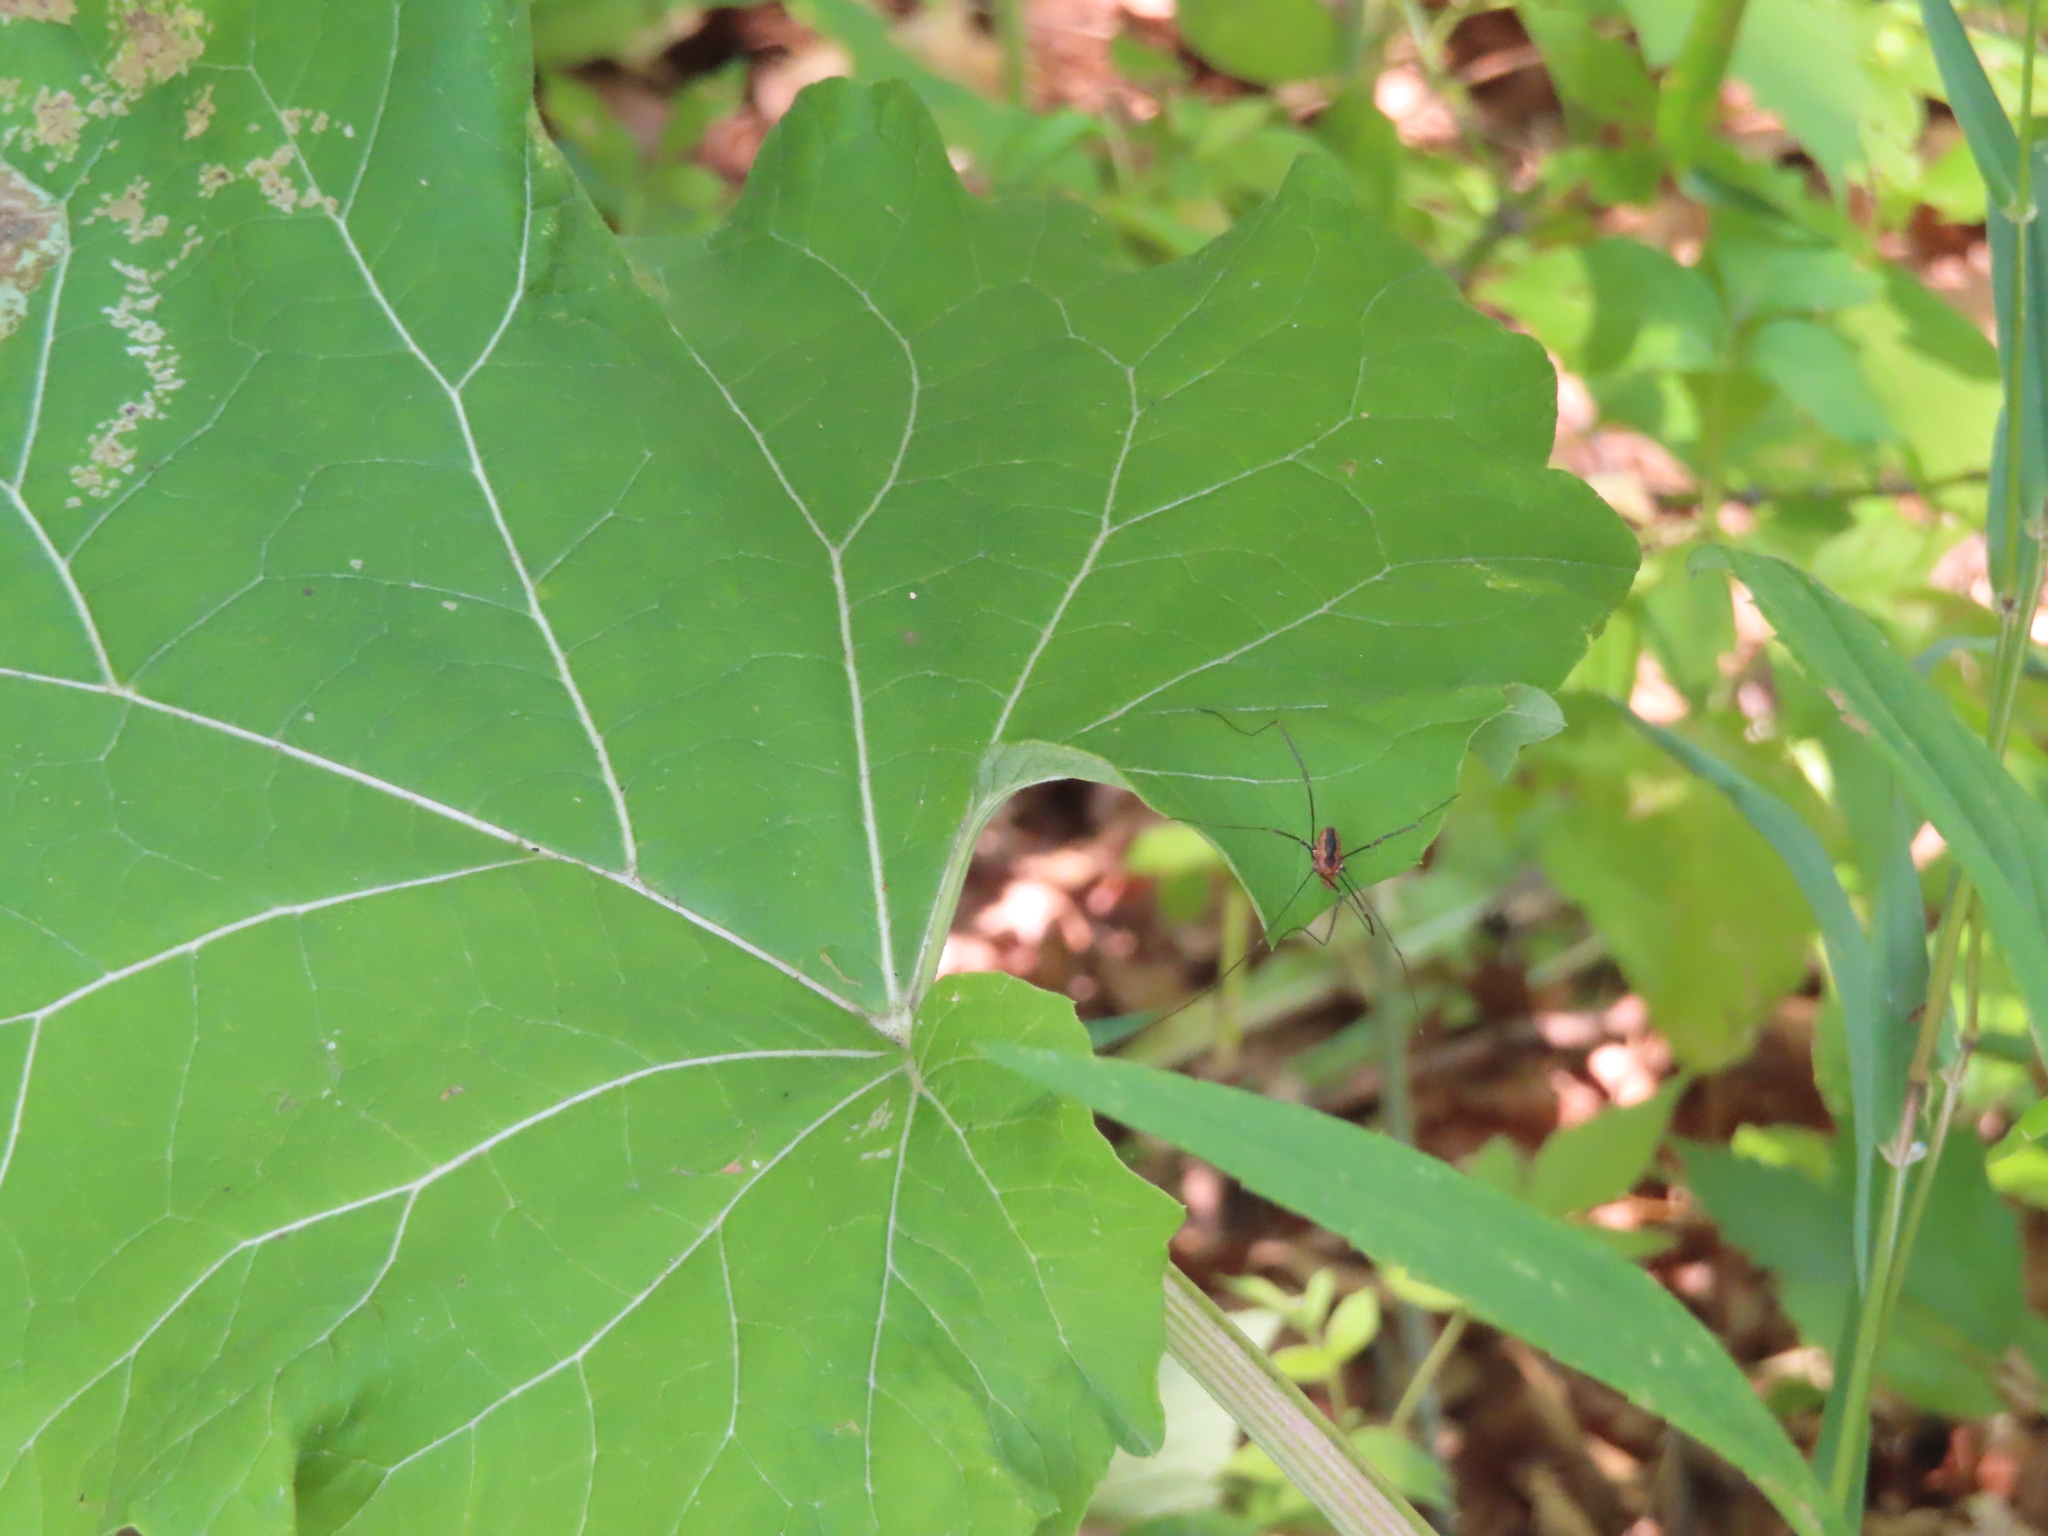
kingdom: Animalia
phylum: Arthropoda
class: Arachnida
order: Opiliones
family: Sclerosomatidae
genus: Leiobunum
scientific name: Leiobunum vittatum
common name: Eastern harvestman
